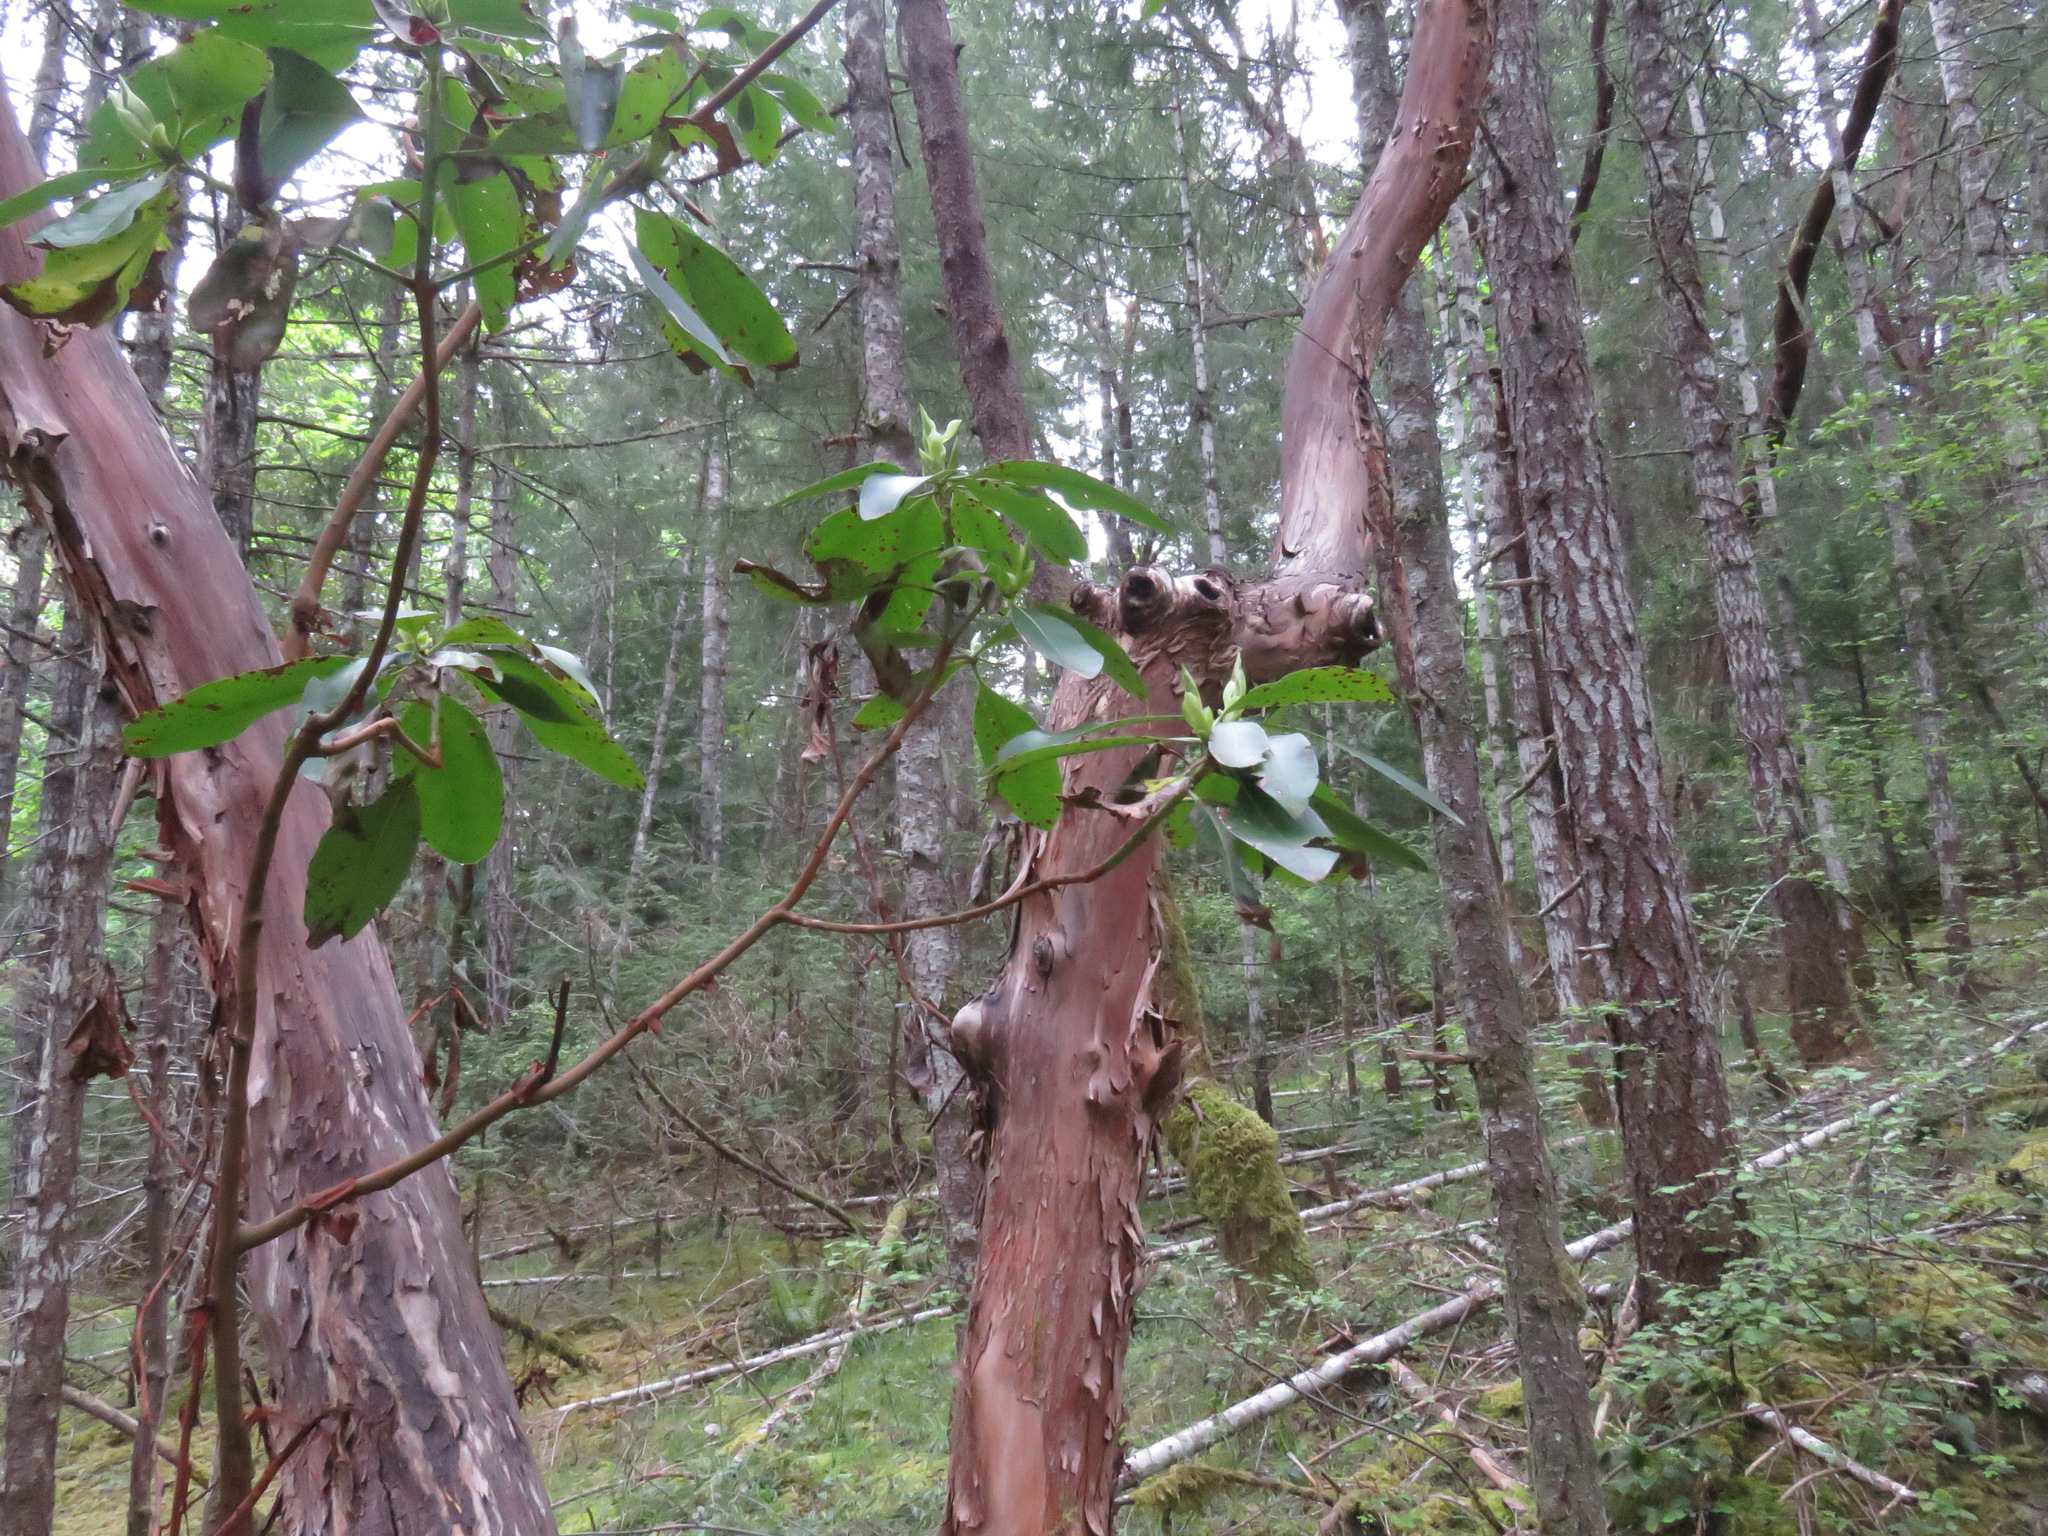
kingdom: Plantae
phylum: Tracheophyta
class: Magnoliopsida
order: Ericales
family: Ericaceae
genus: Arbutus
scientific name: Arbutus menziesii
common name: Pacific madrone
